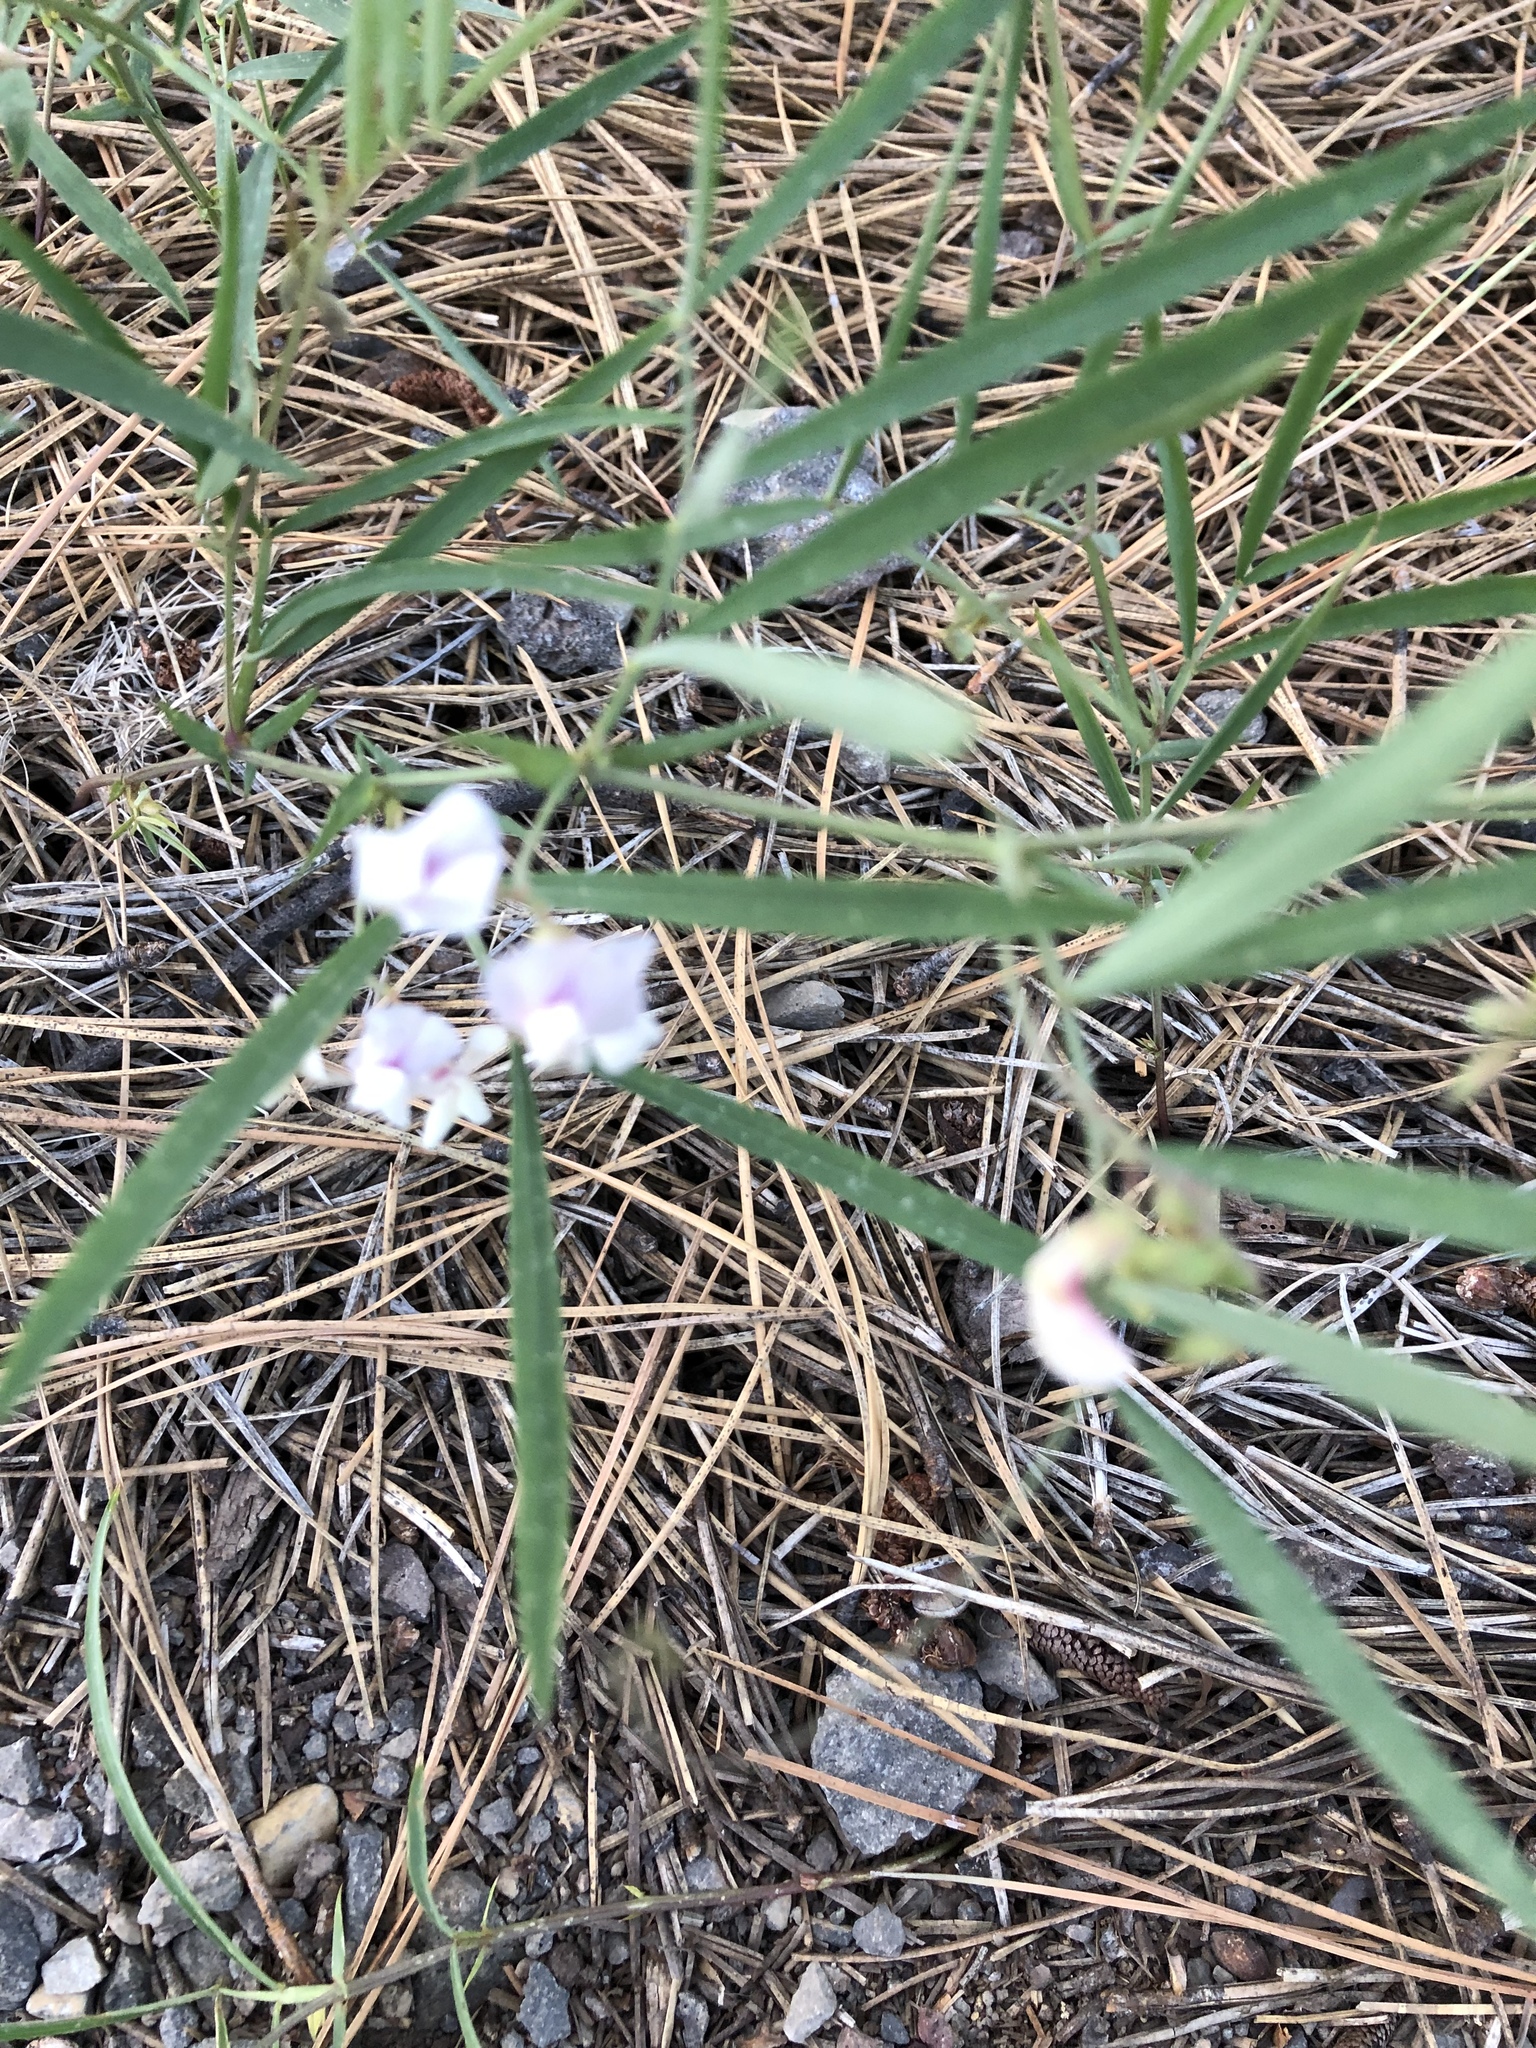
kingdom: Plantae
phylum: Tracheophyta
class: Magnoliopsida
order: Fabales
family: Fabaceae
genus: Lathyrus
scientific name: Lathyrus lanszwertii
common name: Lanszwert's vetchling
